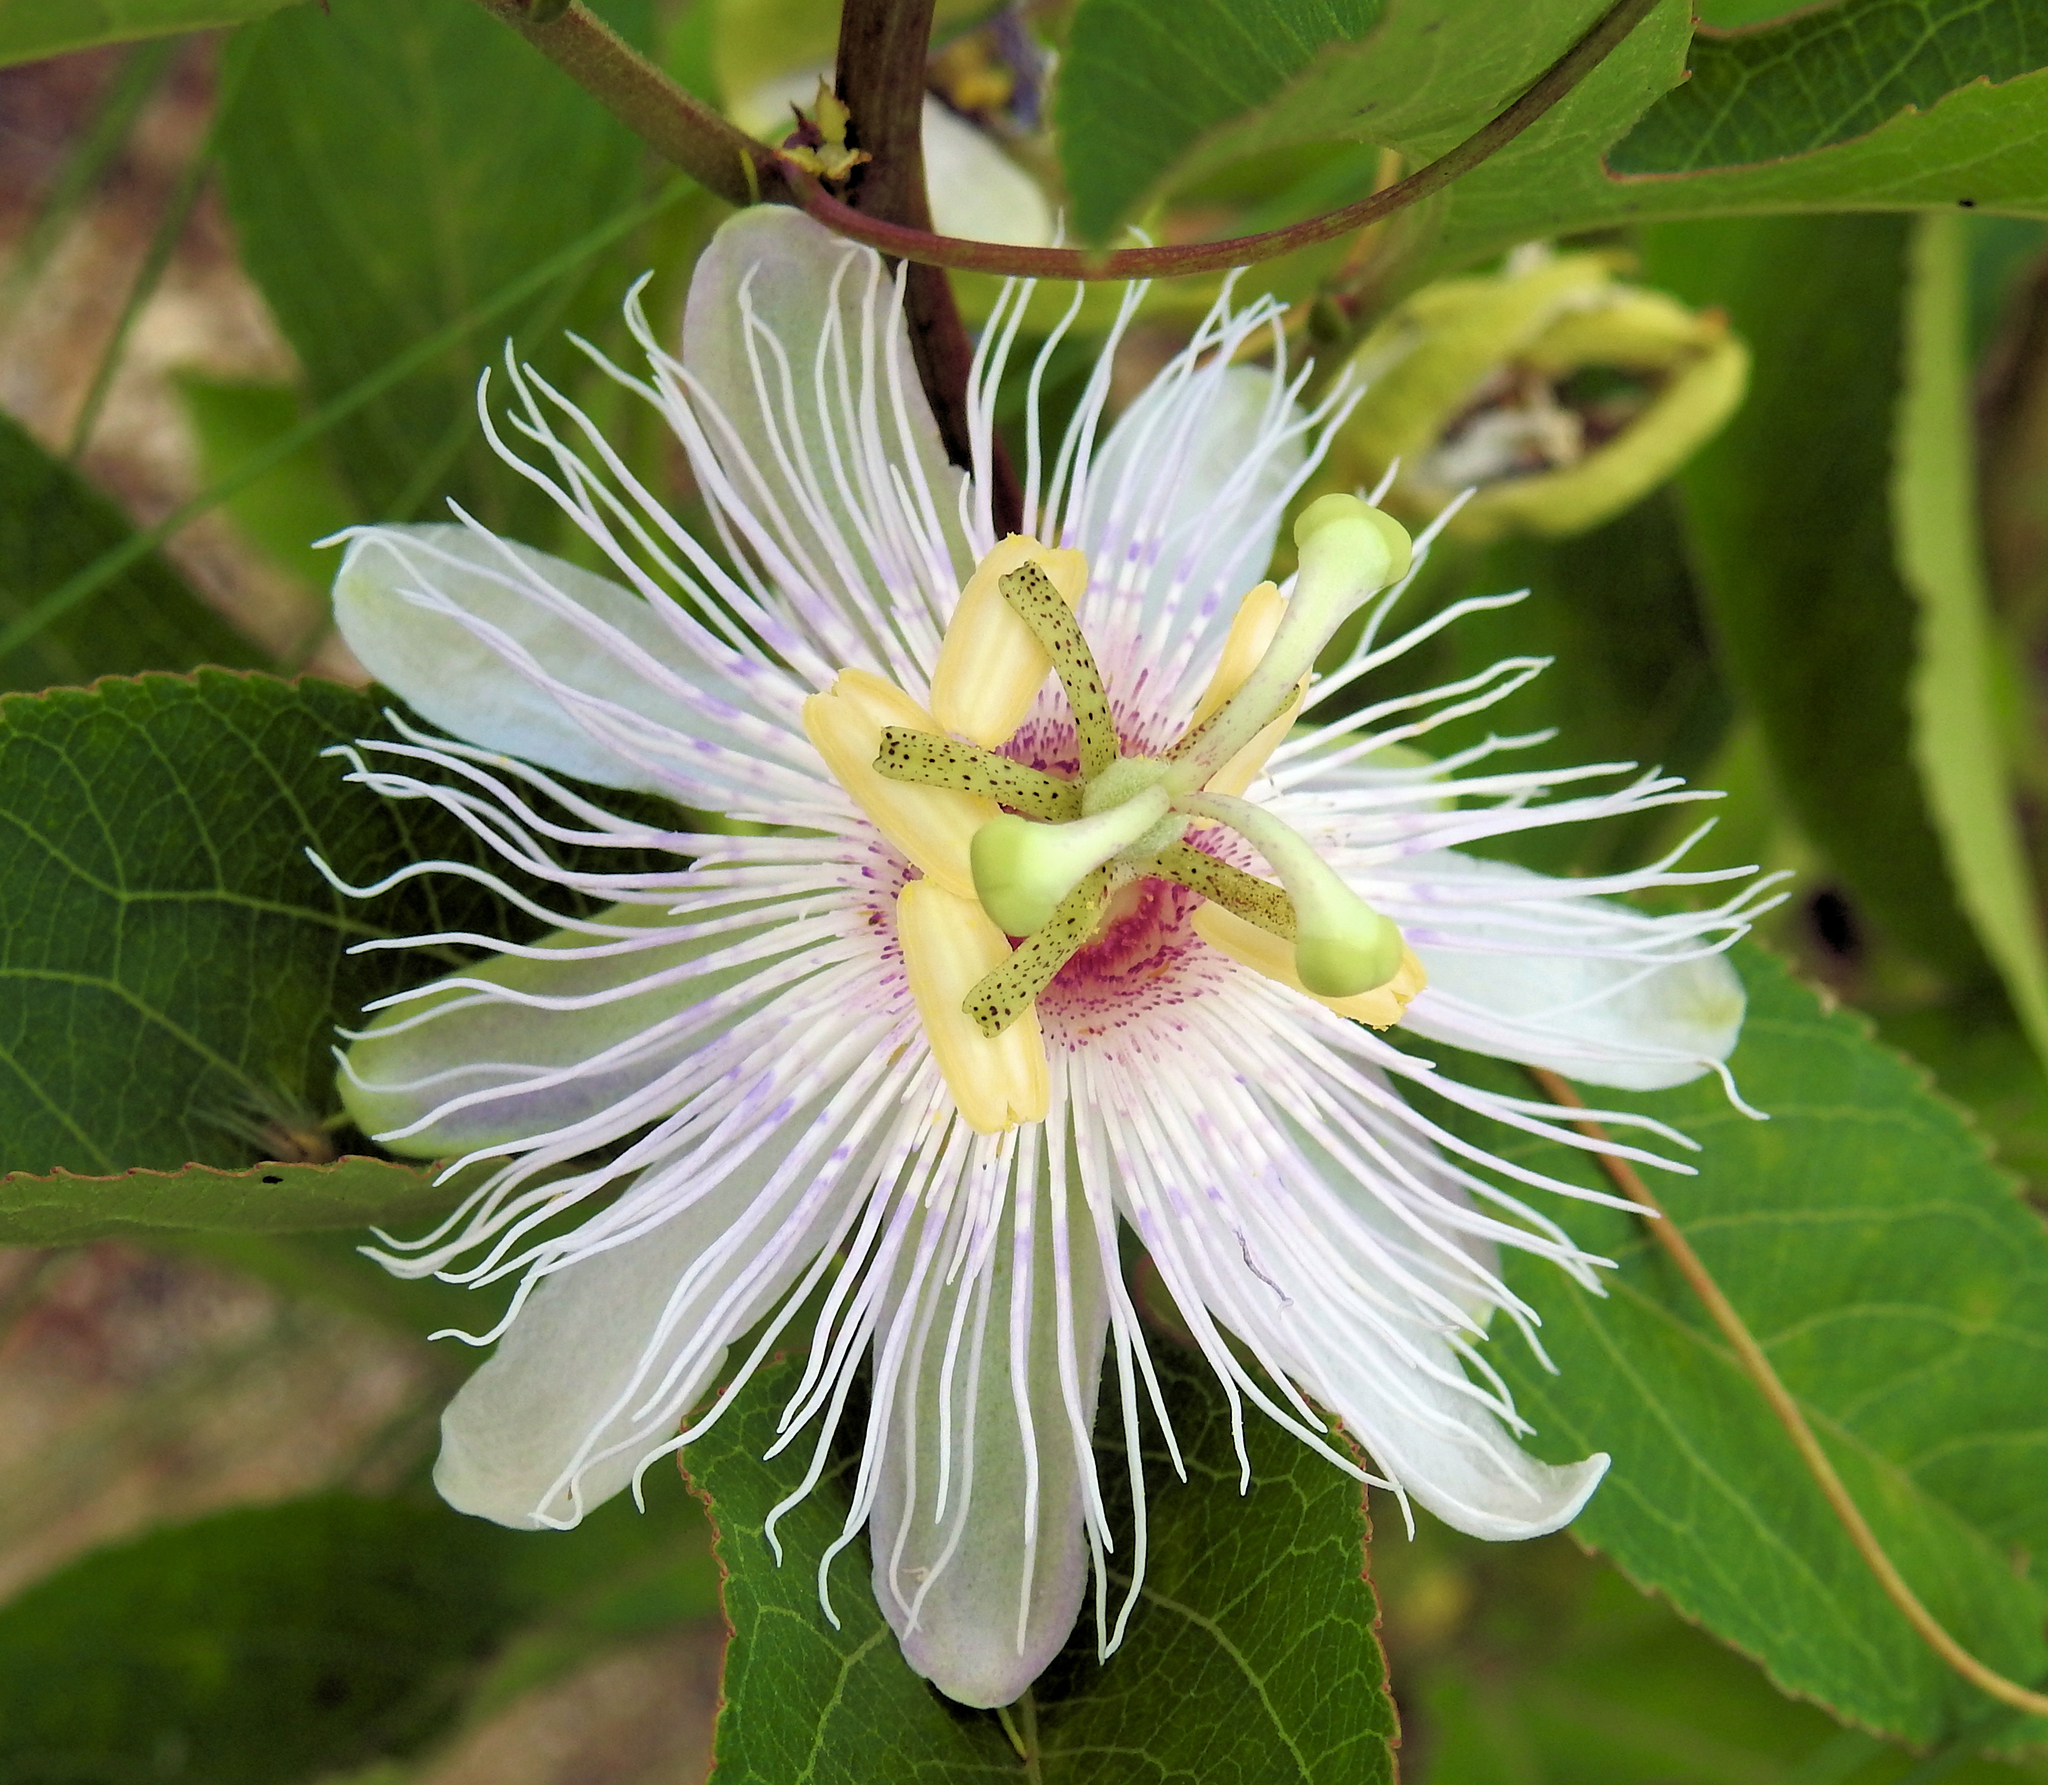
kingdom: Plantae
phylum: Tracheophyta
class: Magnoliopsida
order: Malpighiales
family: Passifloraceae
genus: Passiflora
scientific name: Passiflora incarnata
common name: Apricot-vine
